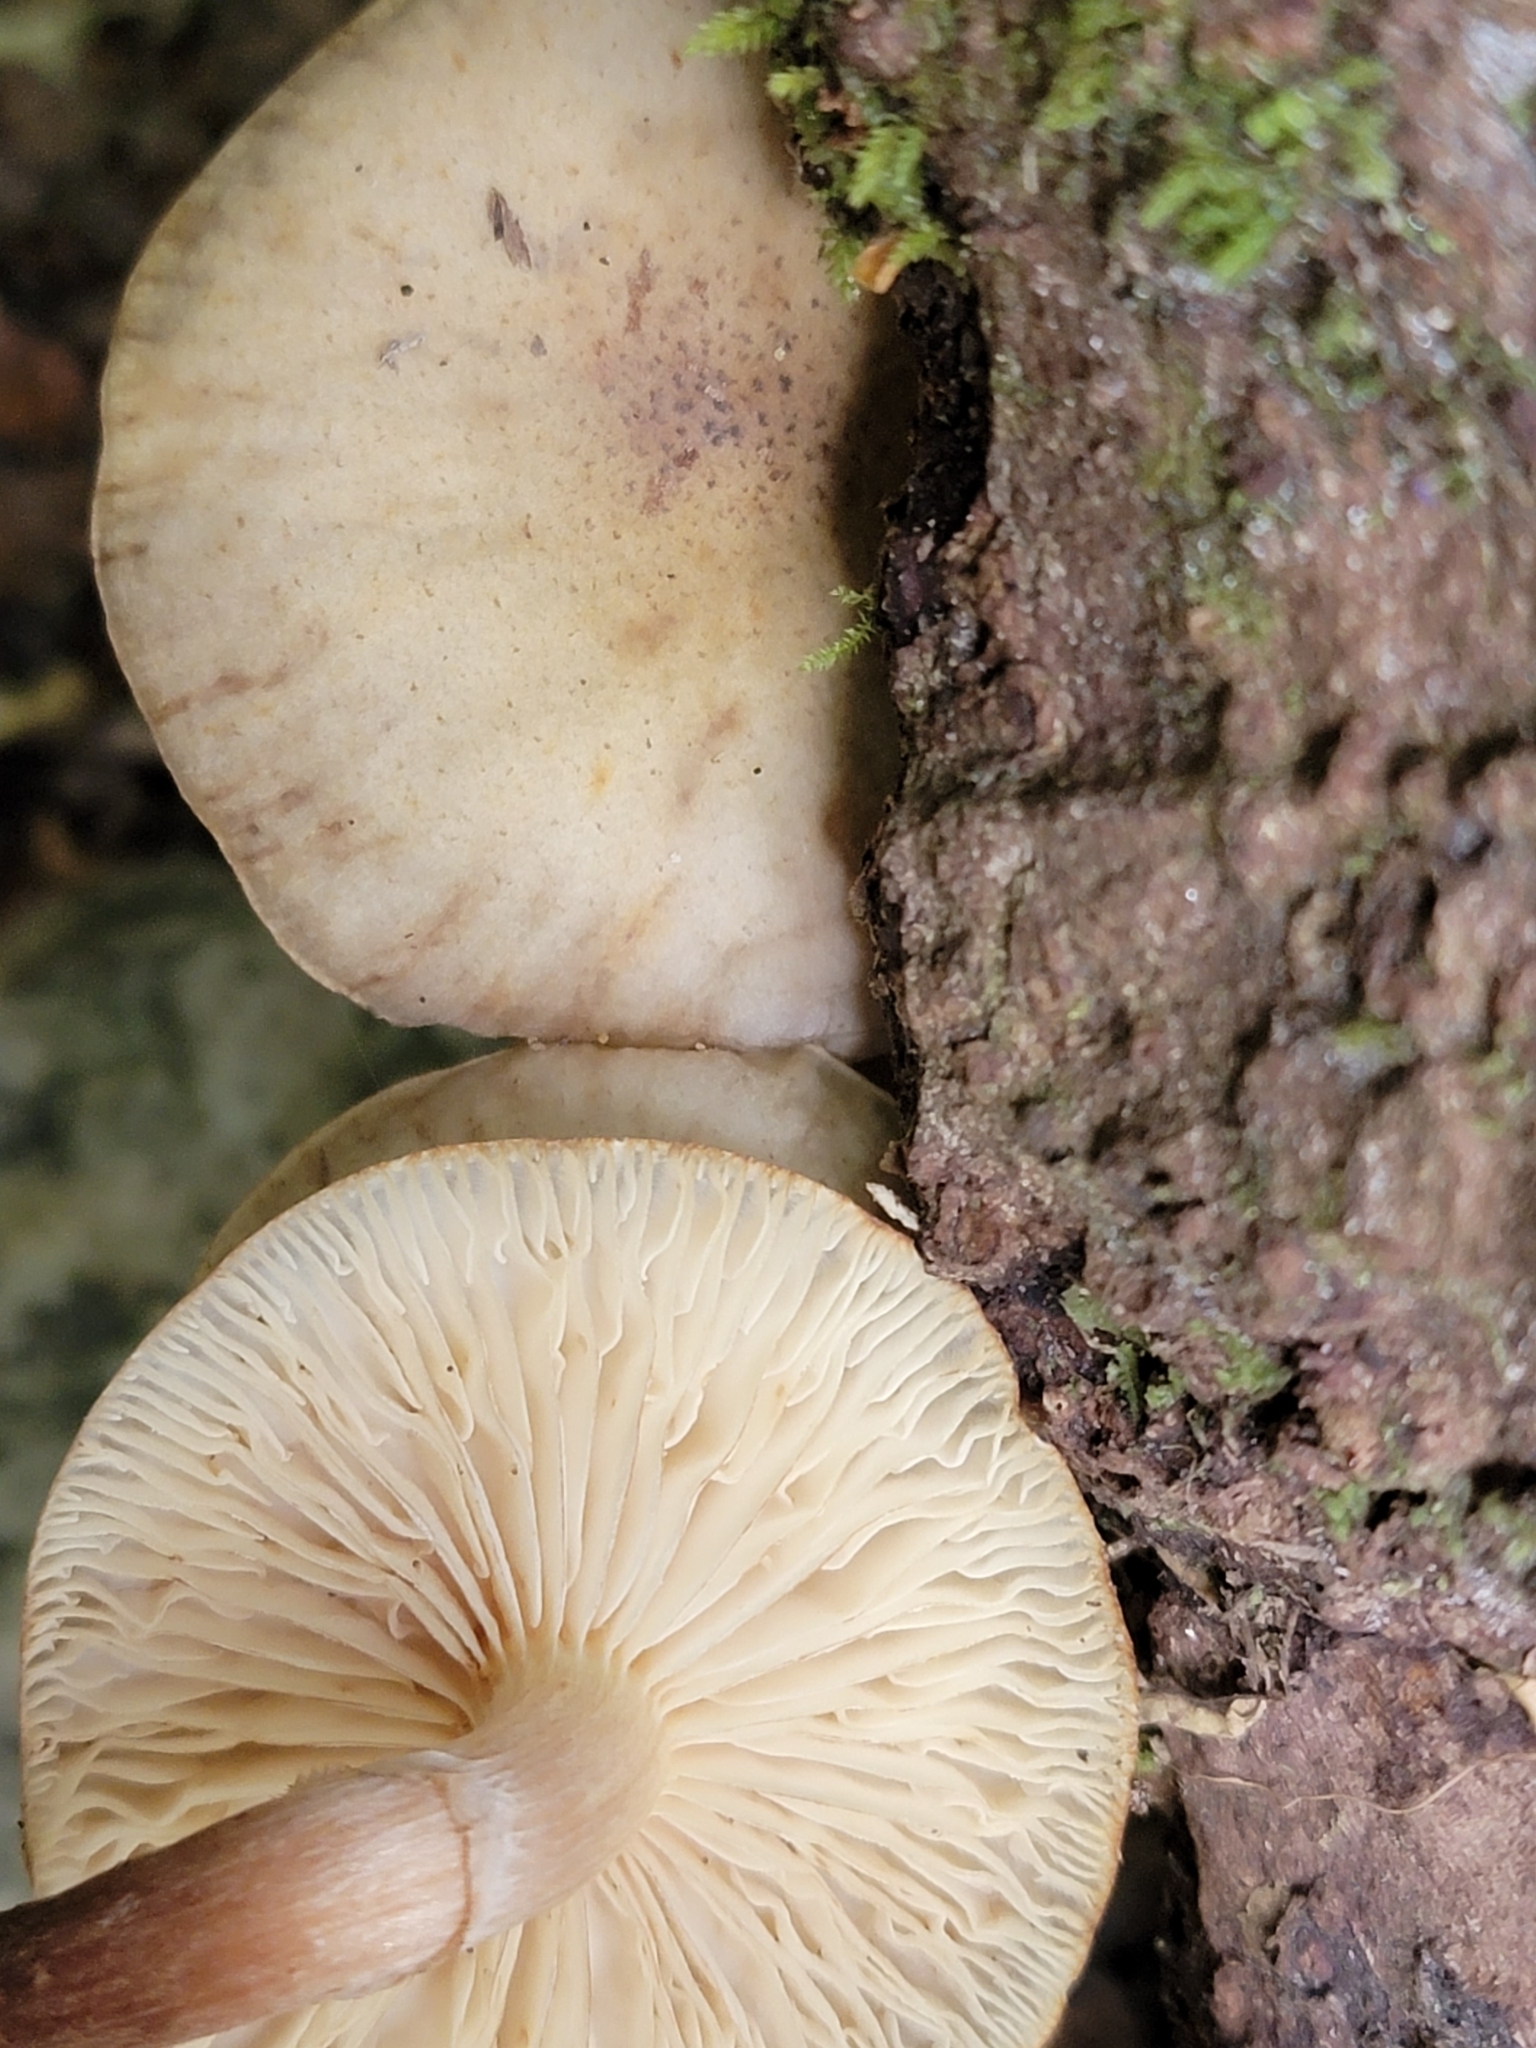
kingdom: Fungi
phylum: Basidiomycota
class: Agaricomycetes
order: Agaricales
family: Physalacriaceae
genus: Armillaria
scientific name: Armillaria novae-zelandiae
